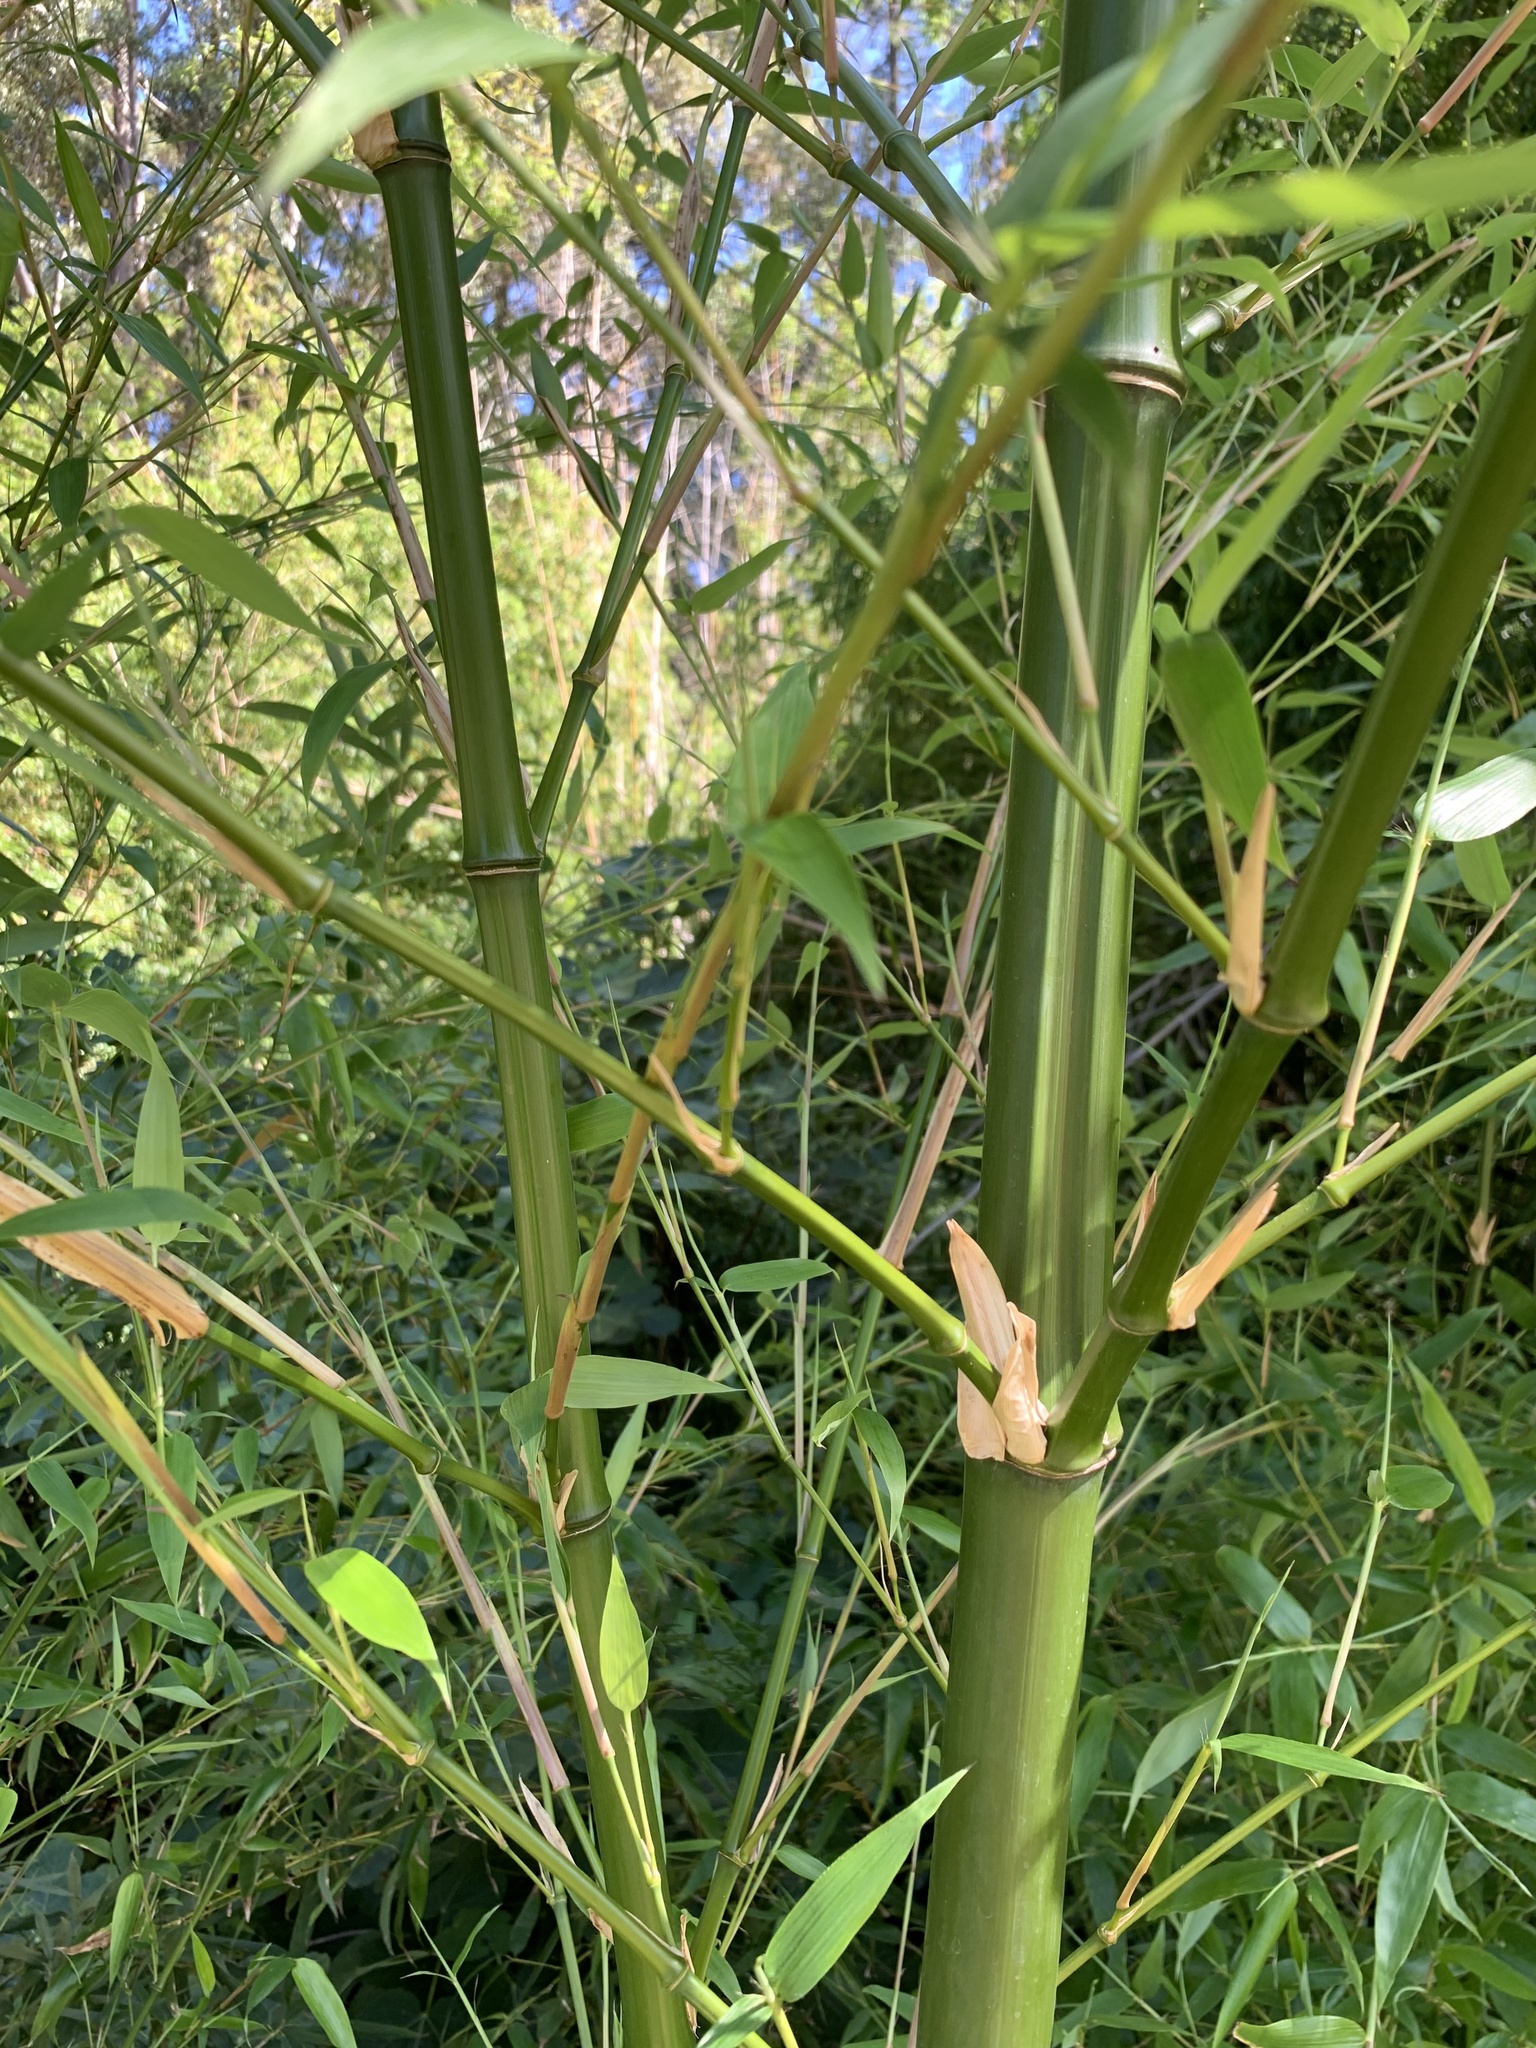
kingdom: Plantae
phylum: Tracheophyta
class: Liliopsida
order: Poales
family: Poaceae
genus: Phyllostachys
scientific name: Phyllostachys aurea
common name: Golden bamboo
